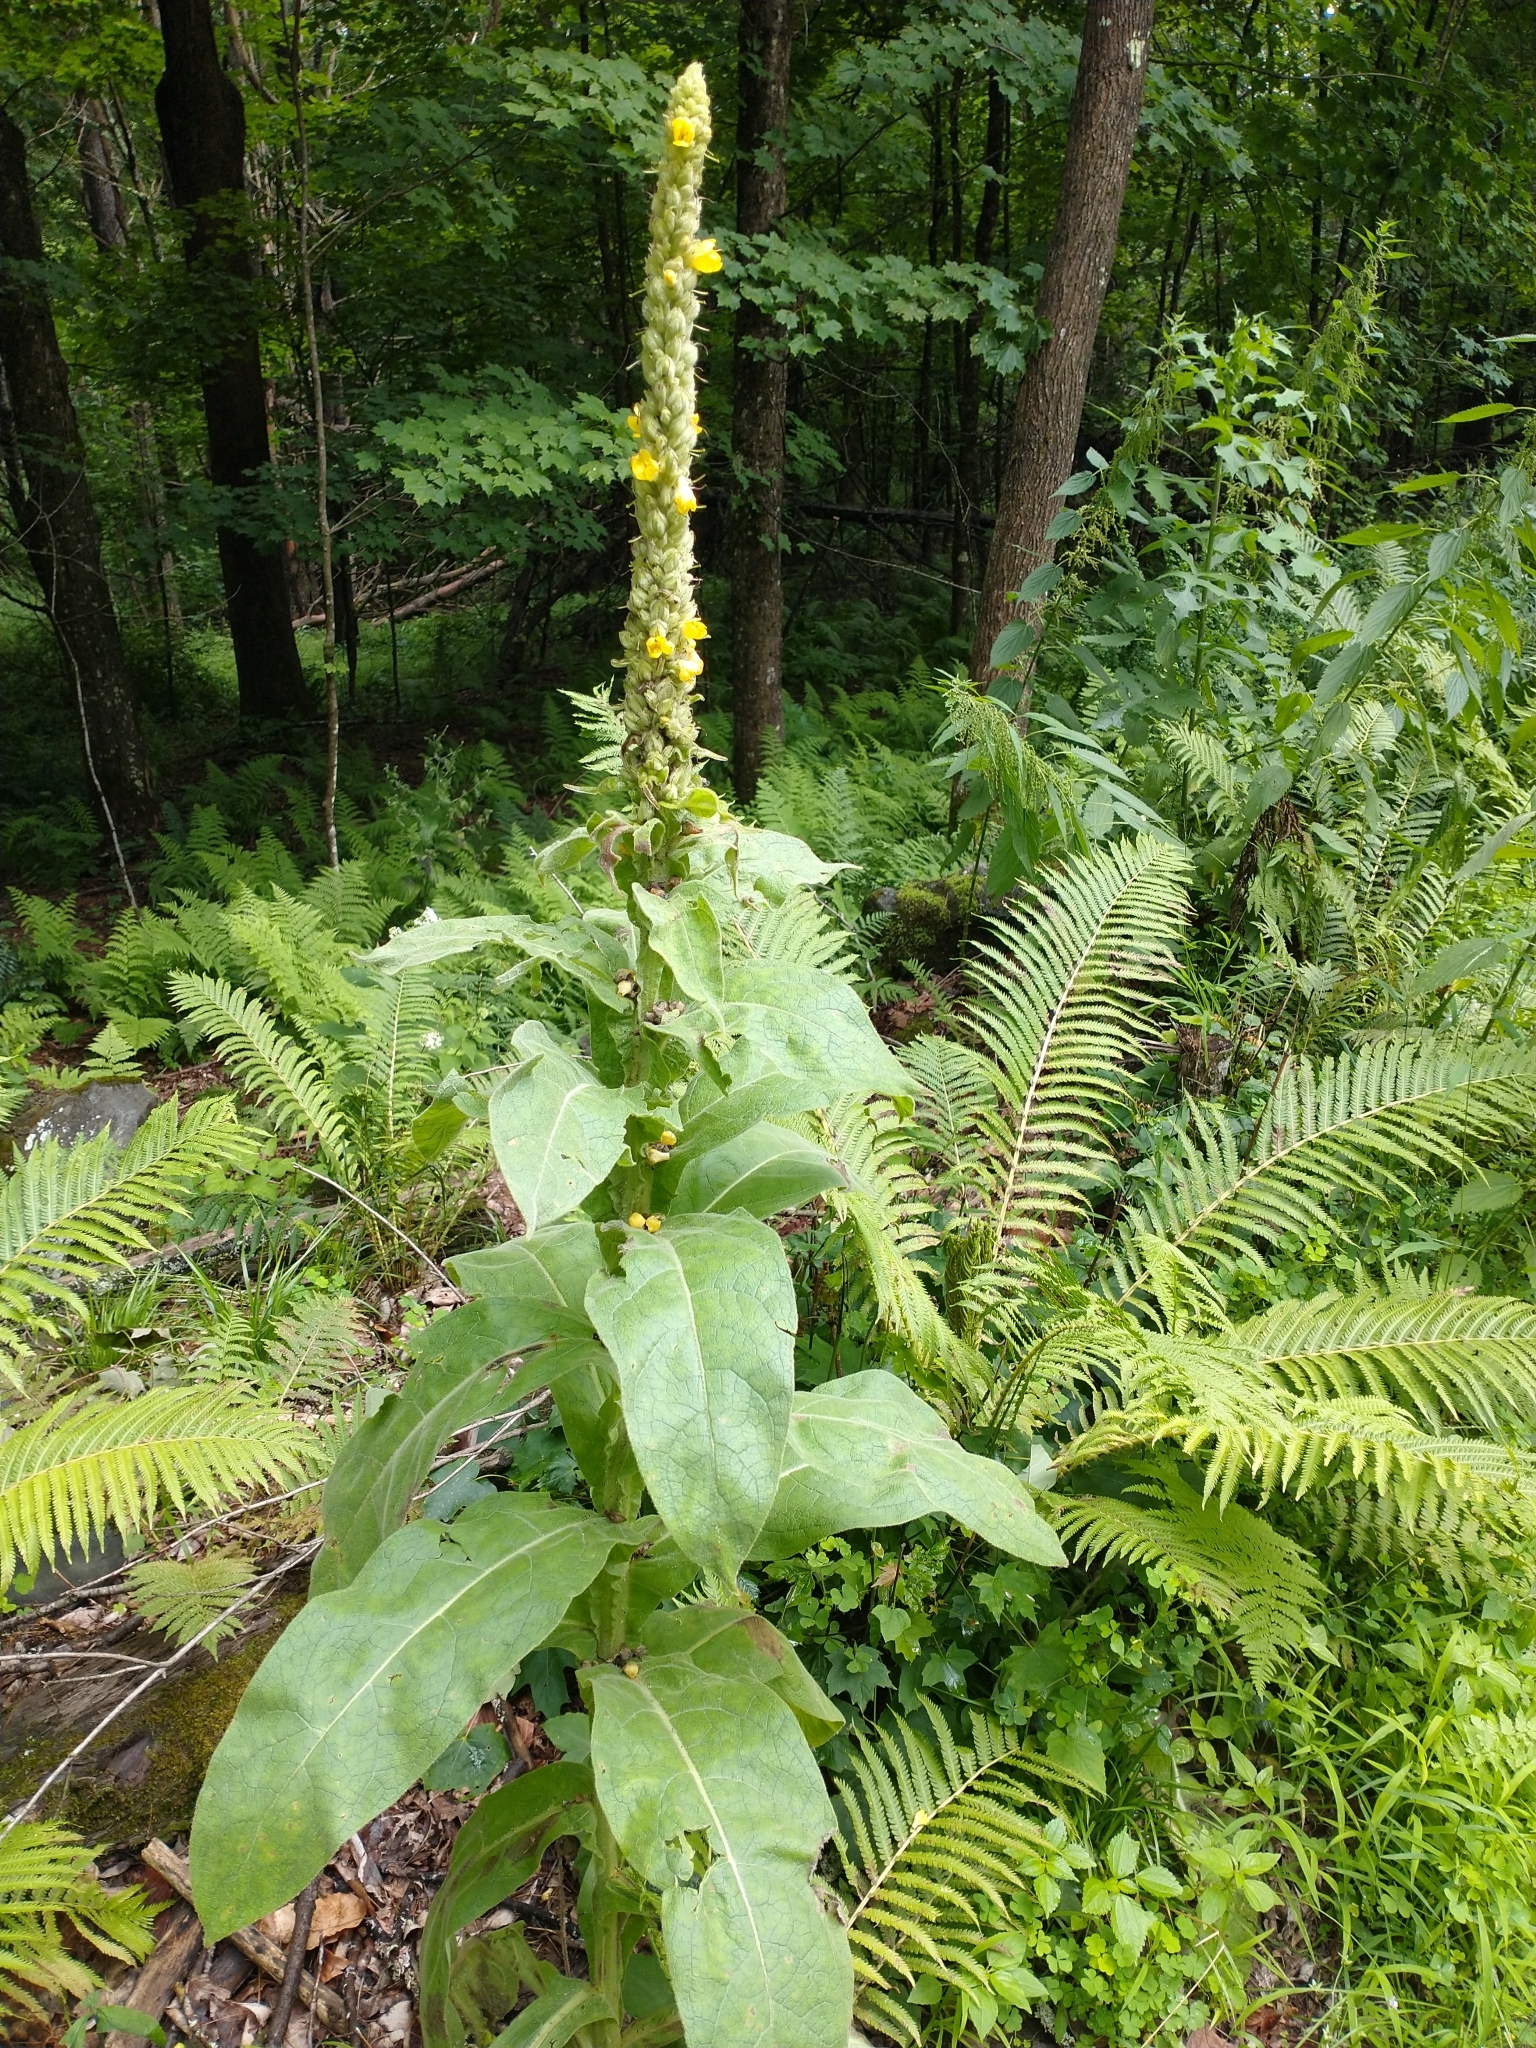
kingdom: Plantae
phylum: Tracheophyta
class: Magnoliopsida
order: Lamiales
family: Scrophulariaceae
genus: Verbascum
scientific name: Verbascum thapsus
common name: Common mullein
